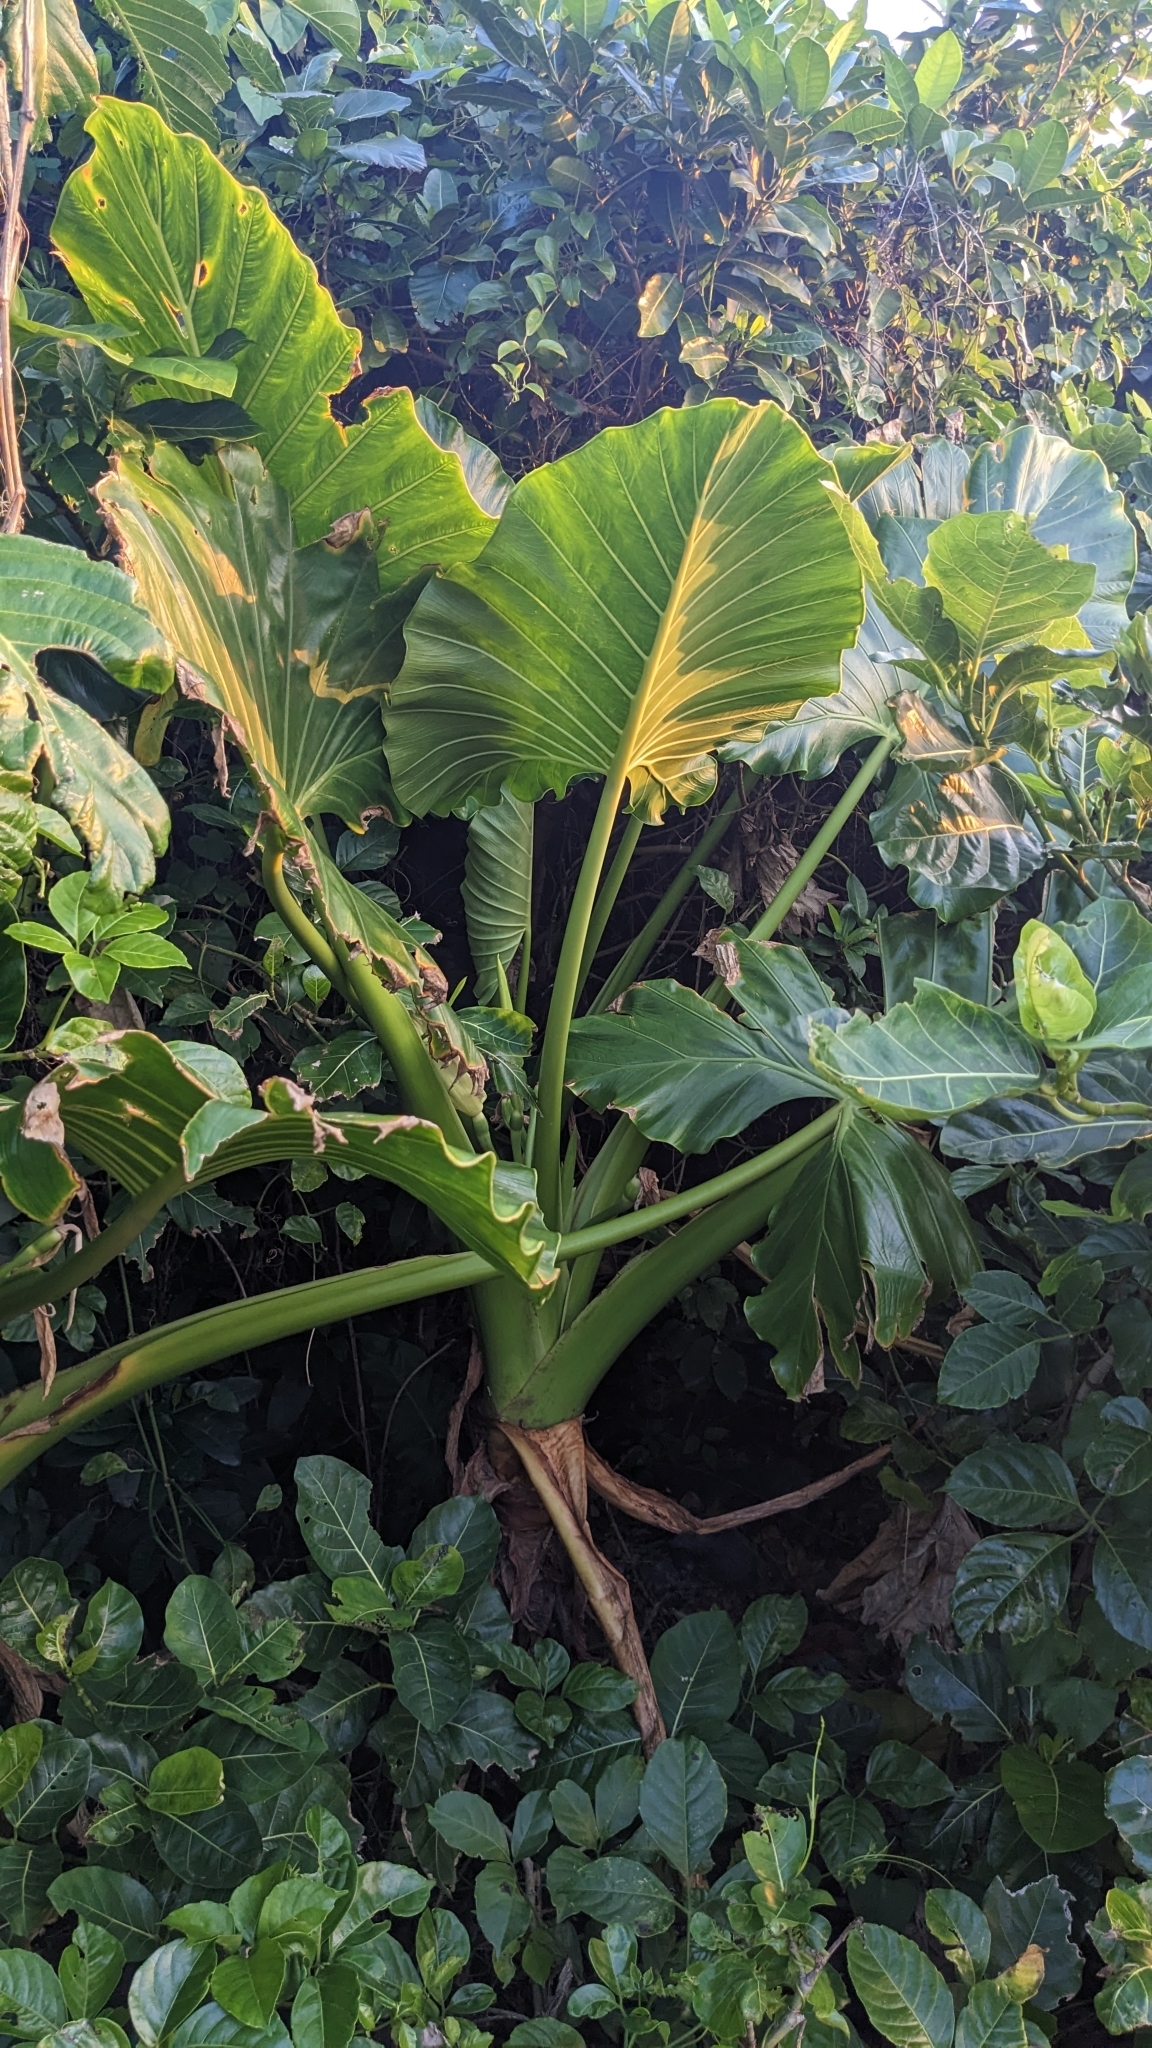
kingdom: Plantae
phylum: Tracheophyta
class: Liliopsida
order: Alismatales
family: Araceae
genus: Alocasia
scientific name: Alocasia macrorrhizos
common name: Giant taro
